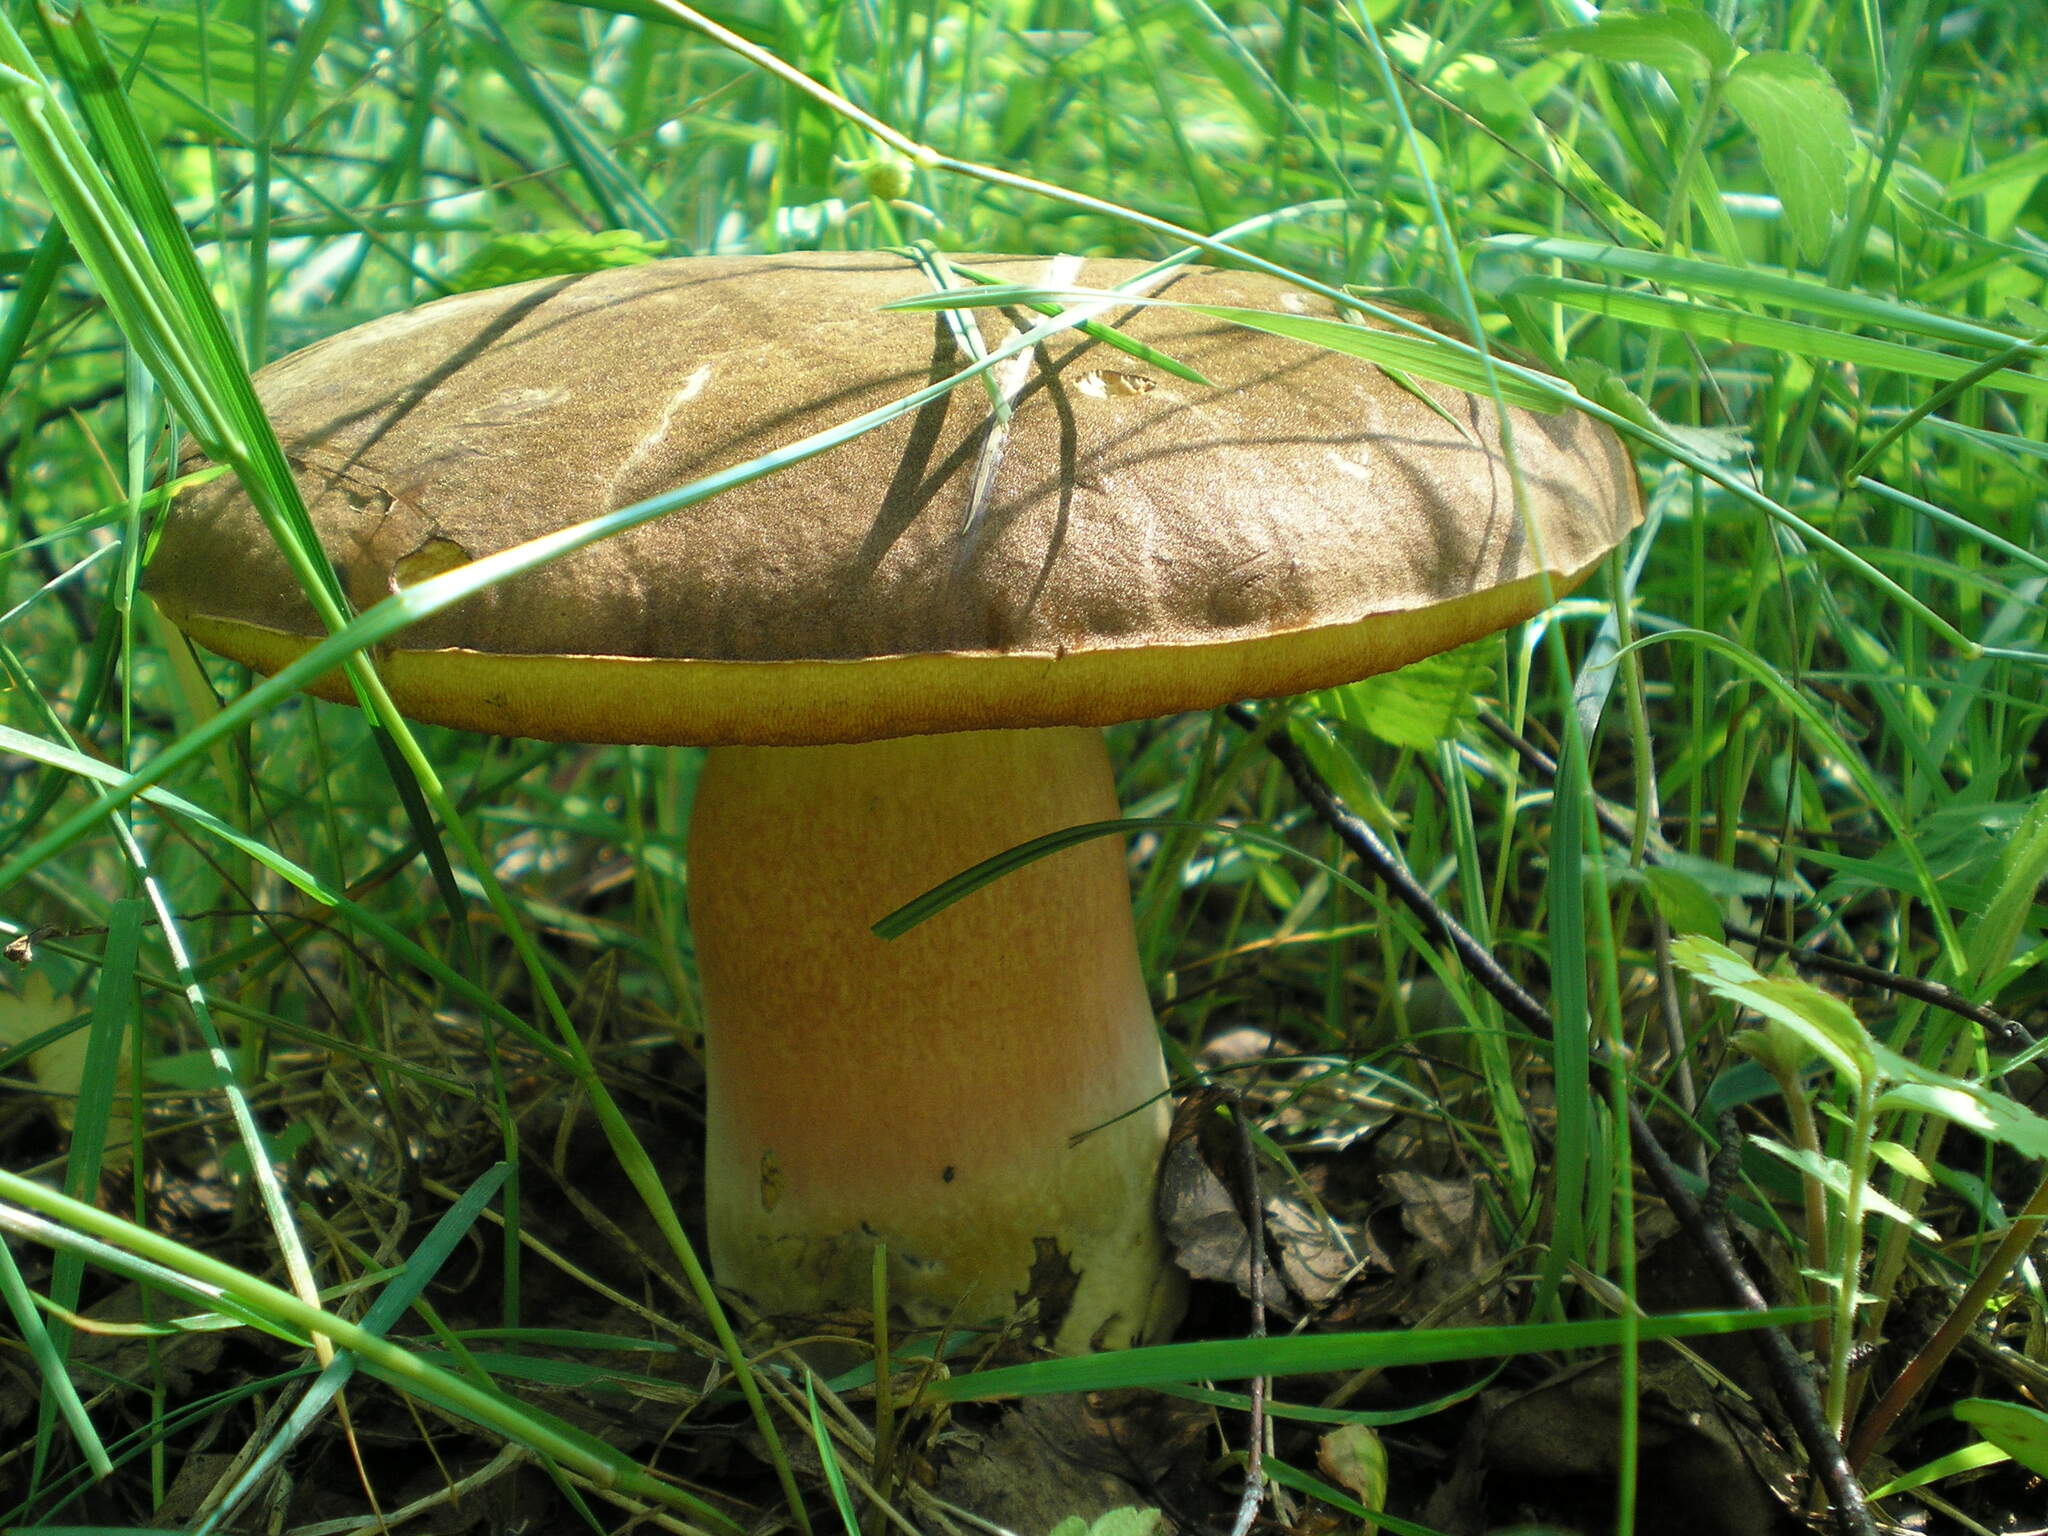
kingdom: Fungi
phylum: Basidiomycota
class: Agaricomycetes
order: Boletales
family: Boletaceae
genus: Suillellus
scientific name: Suillellus luridus
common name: Lurid bolete
